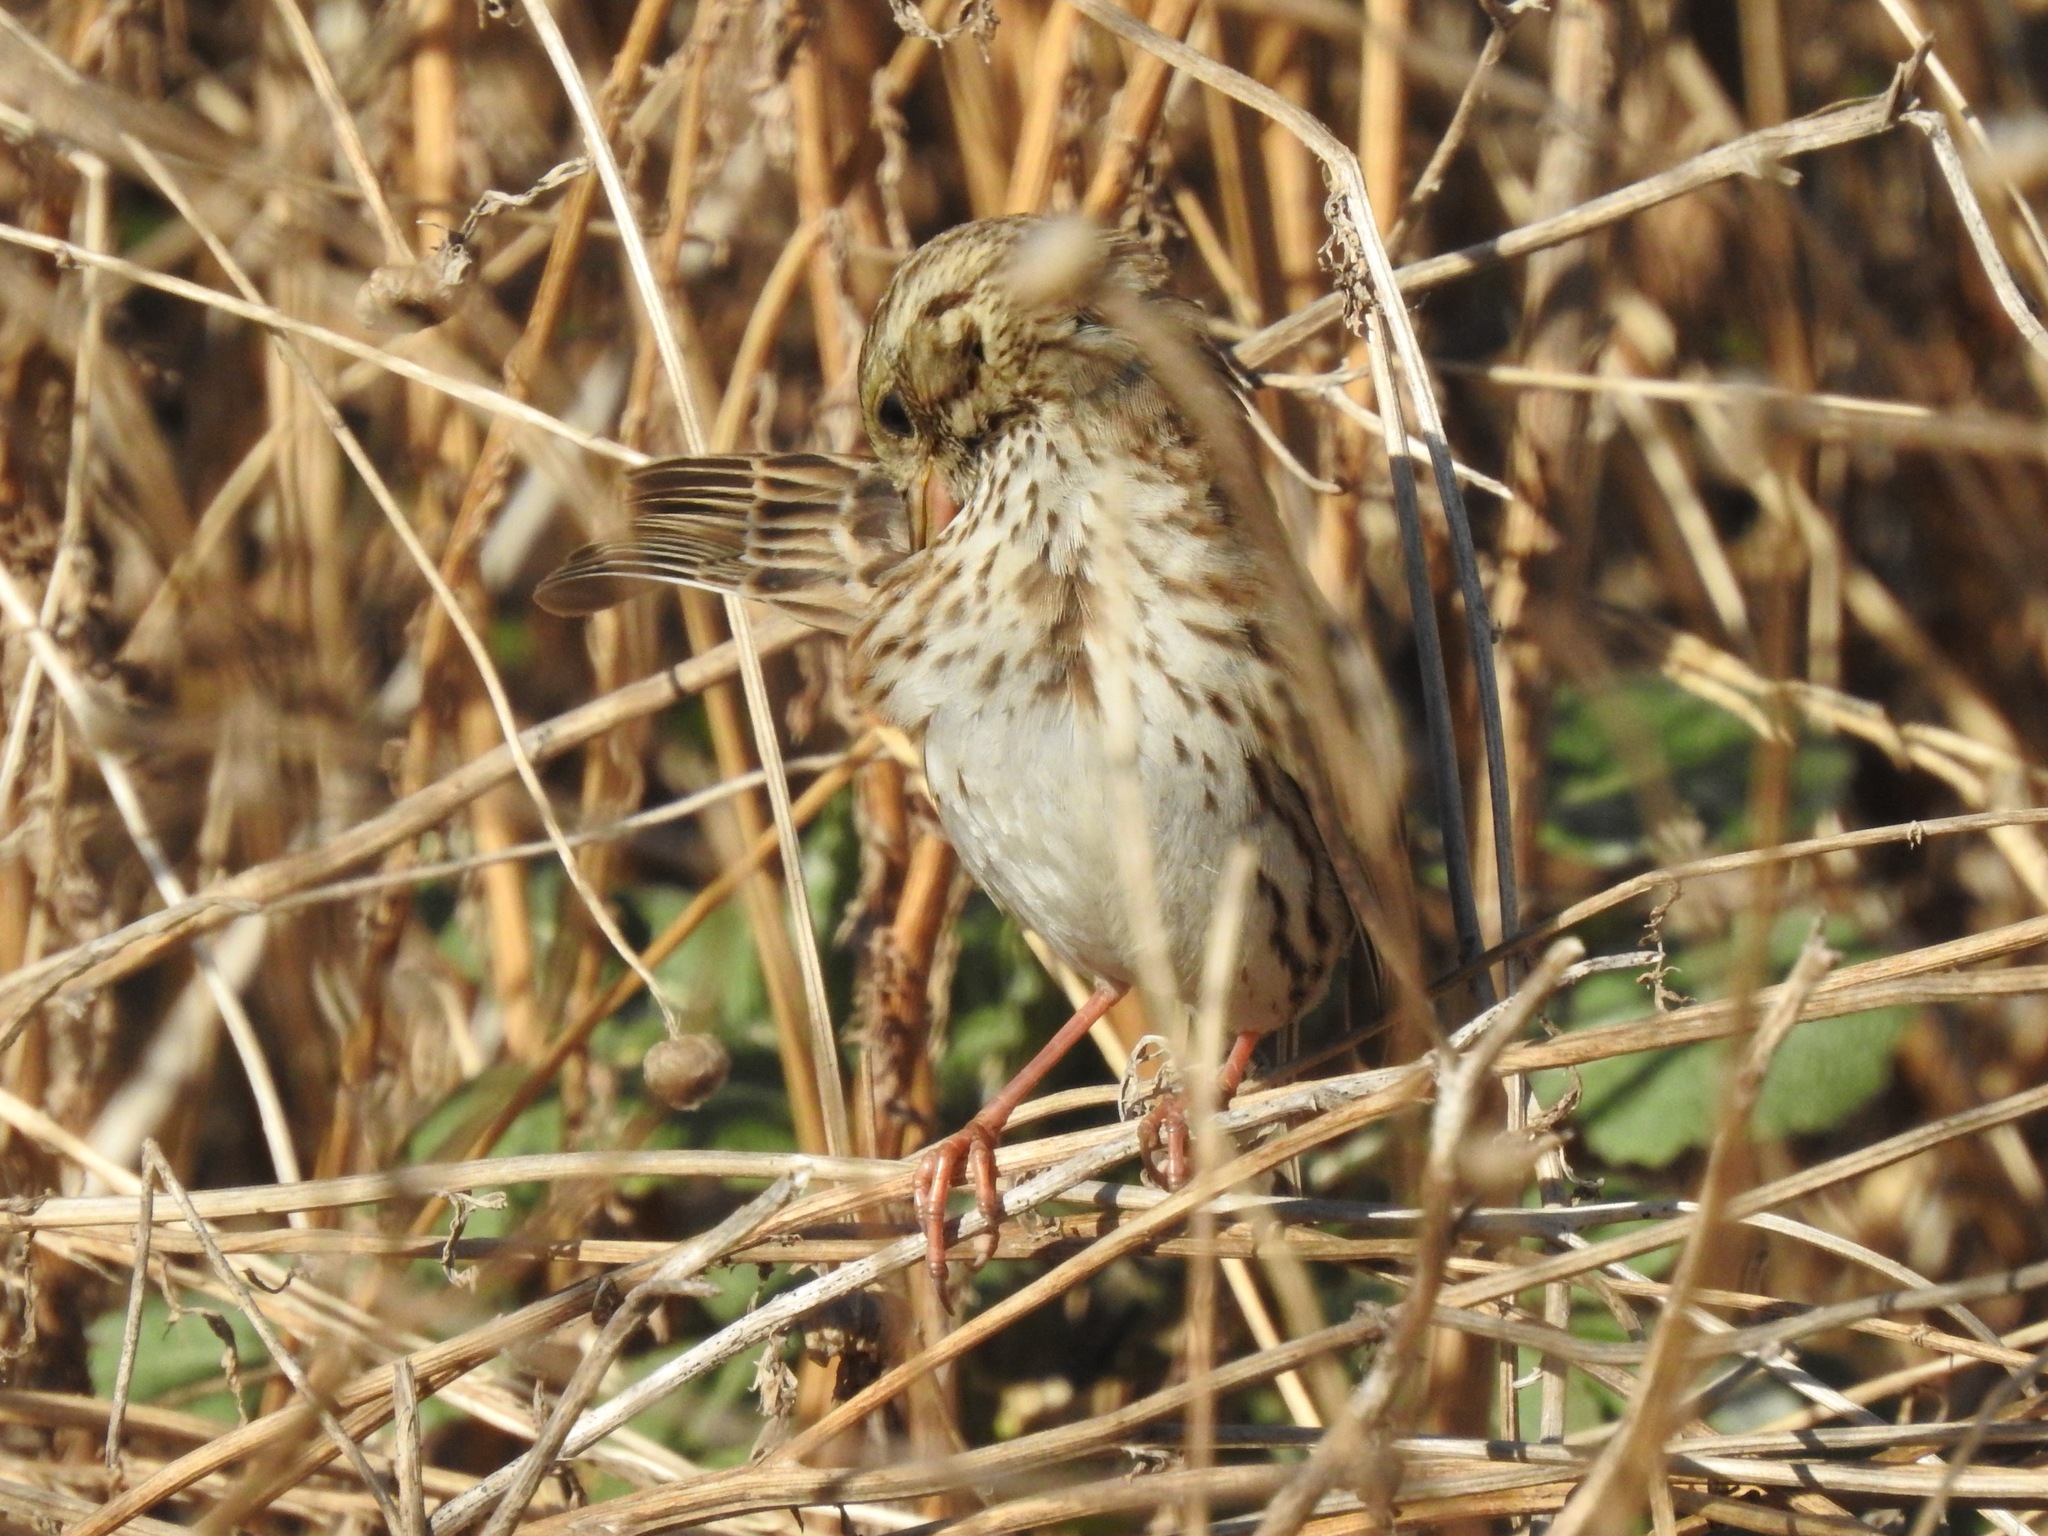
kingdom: Animalia
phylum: Chordata
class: Aves
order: Passeriformes
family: Passerellidae
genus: Passerculus
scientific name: Passerculus sandwichensis
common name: Savannah sparrow
